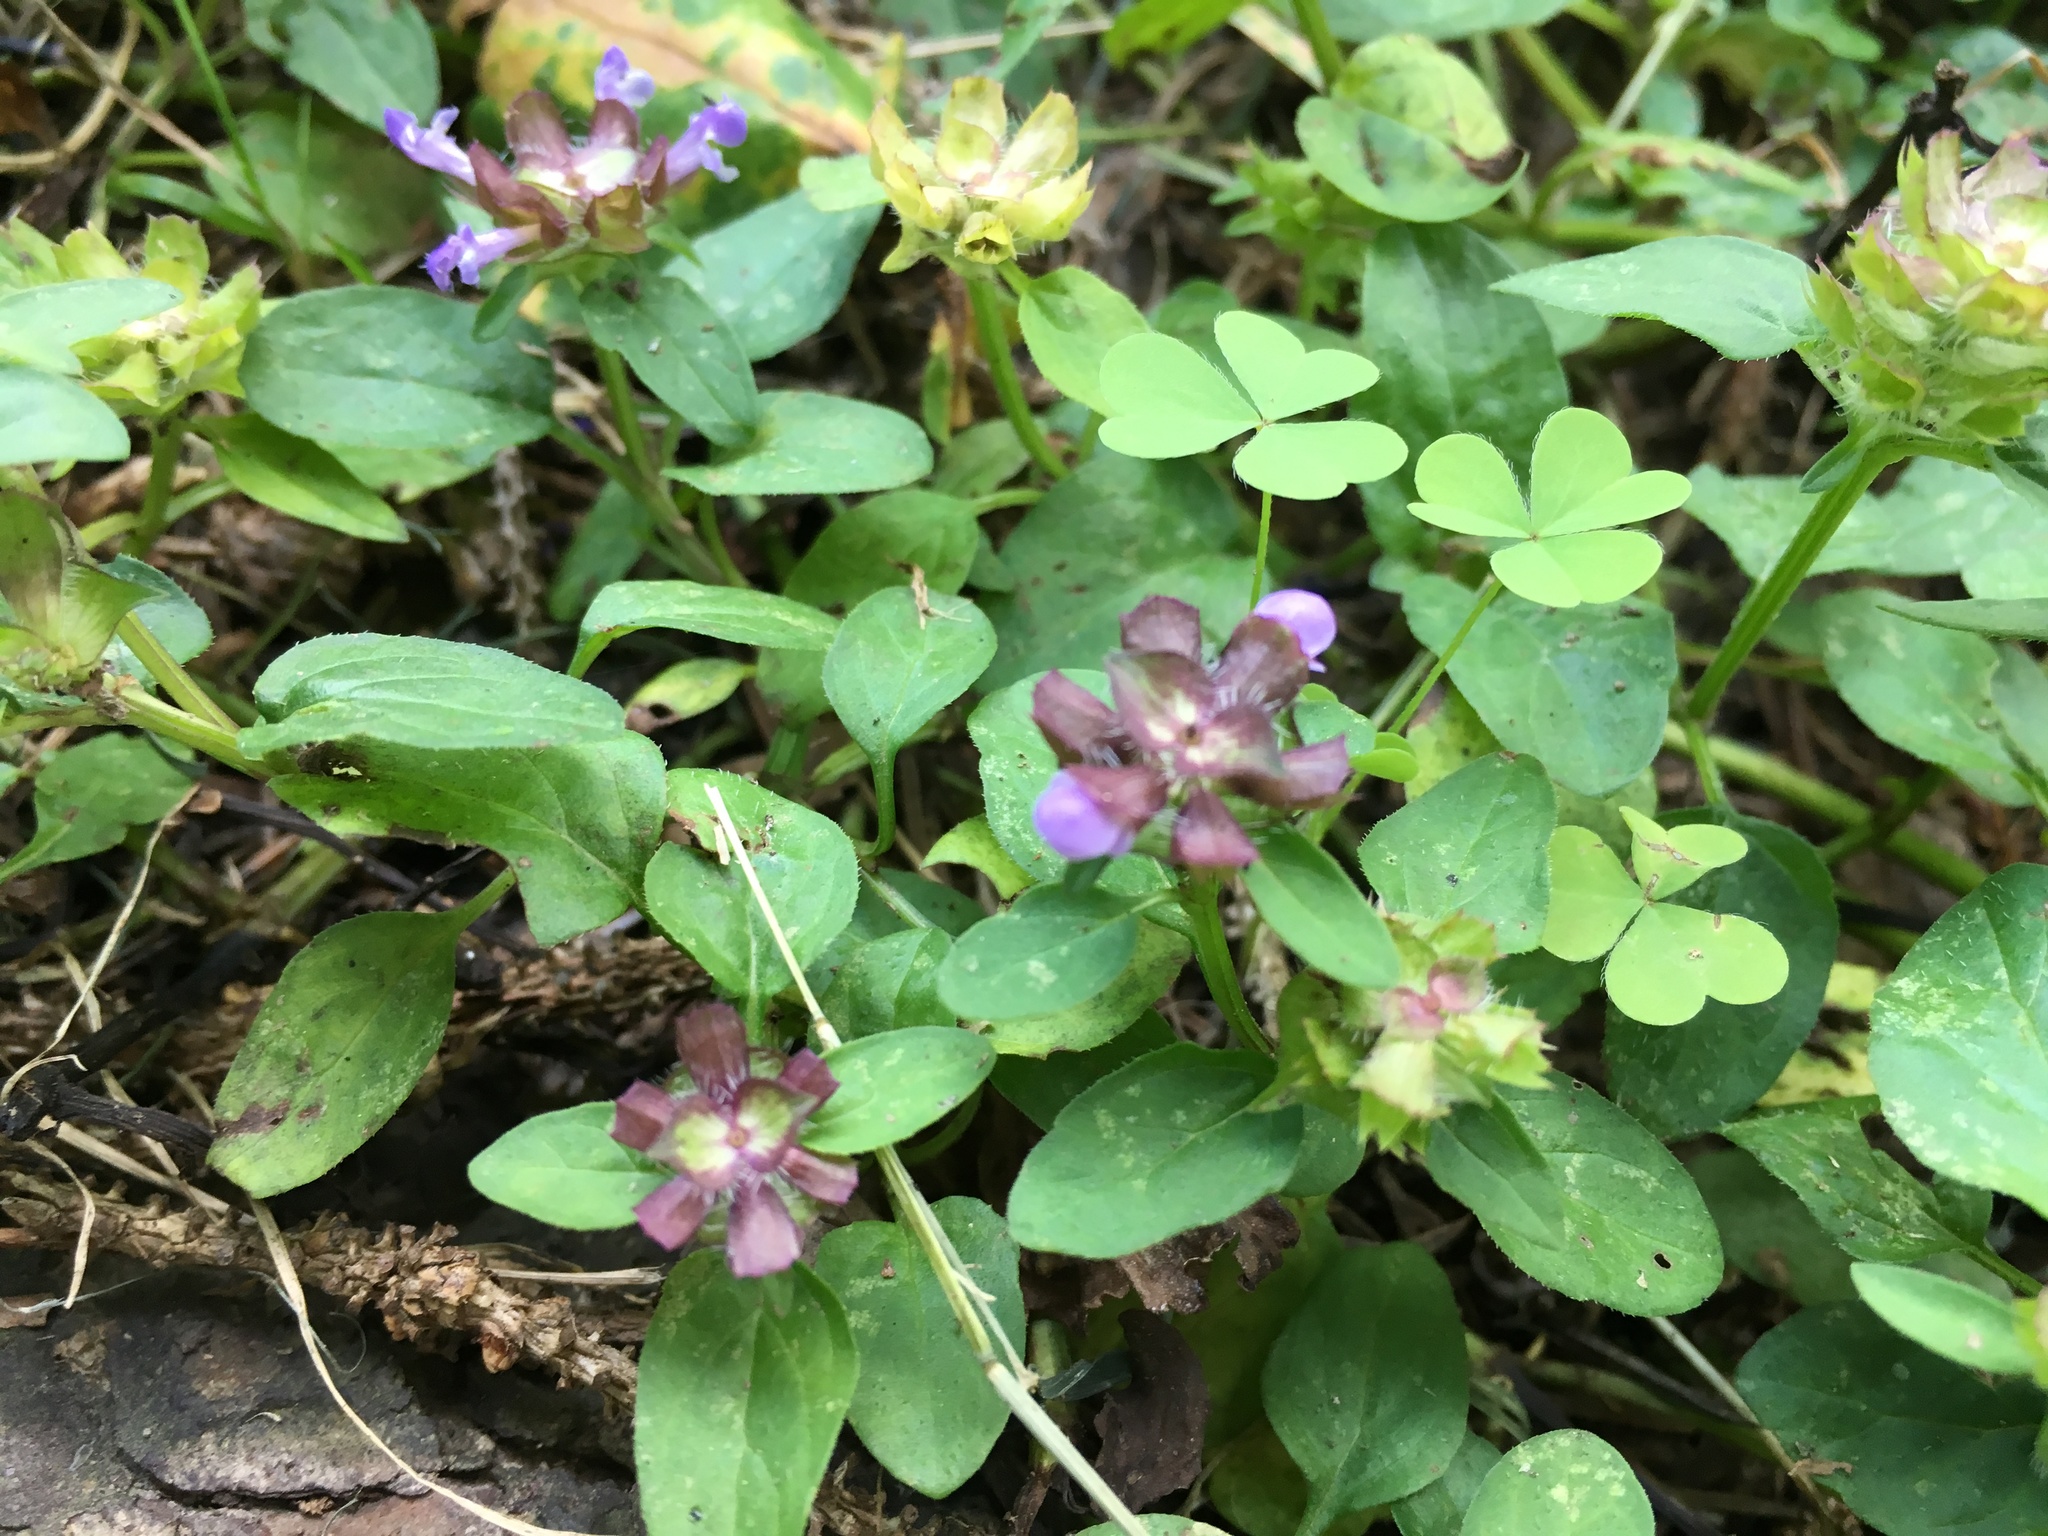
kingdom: Plantae
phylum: Tracheophyta
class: Magnoliopsida
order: Lamiales
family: Lamiaceae
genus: Prunella
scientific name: Prunella vulgaris
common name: Heal-all
